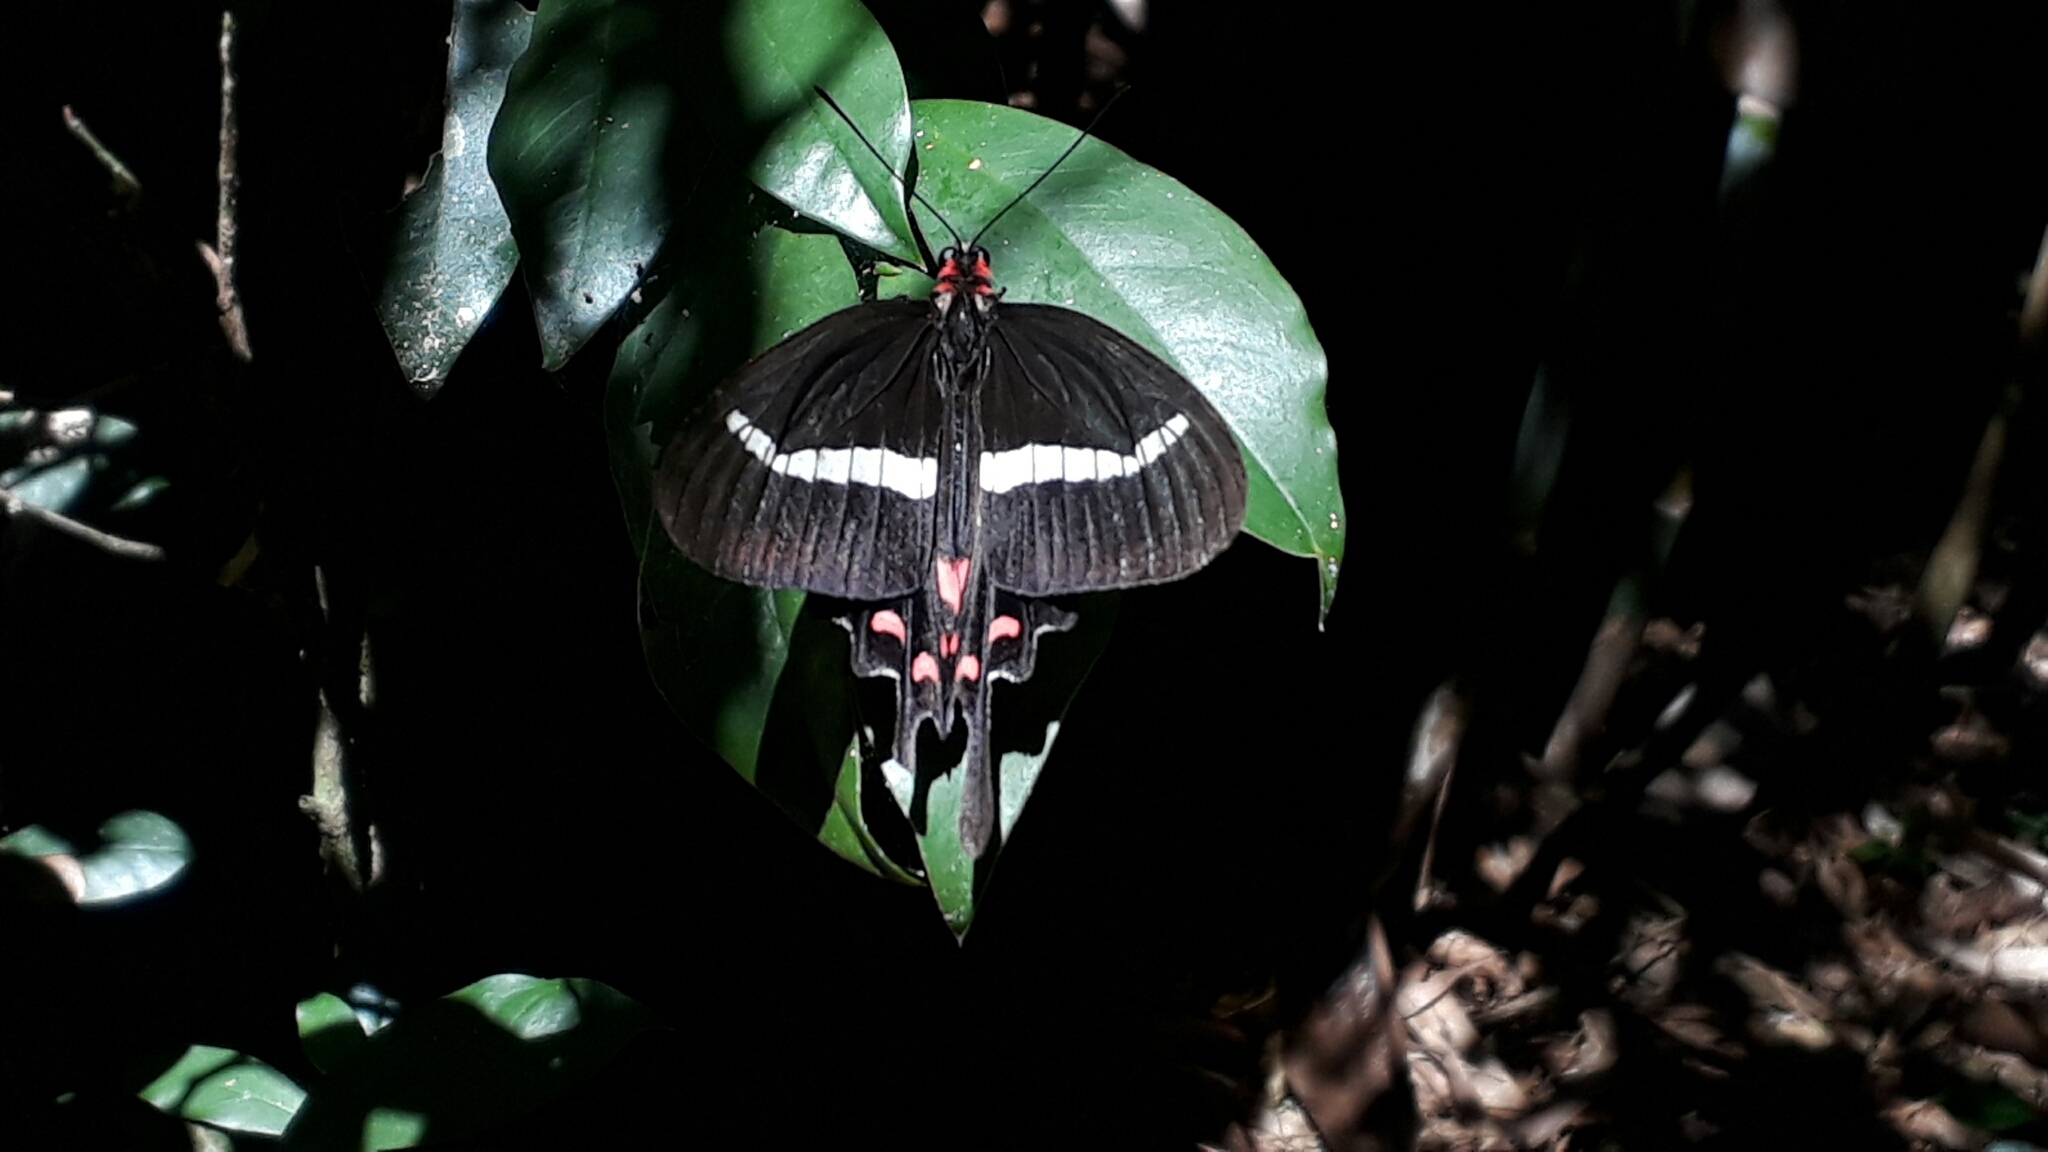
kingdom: Animalia
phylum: Arthropoda
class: Insecta
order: Lepidoptera
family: Papilionidae
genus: Parides
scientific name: Parides agavus
